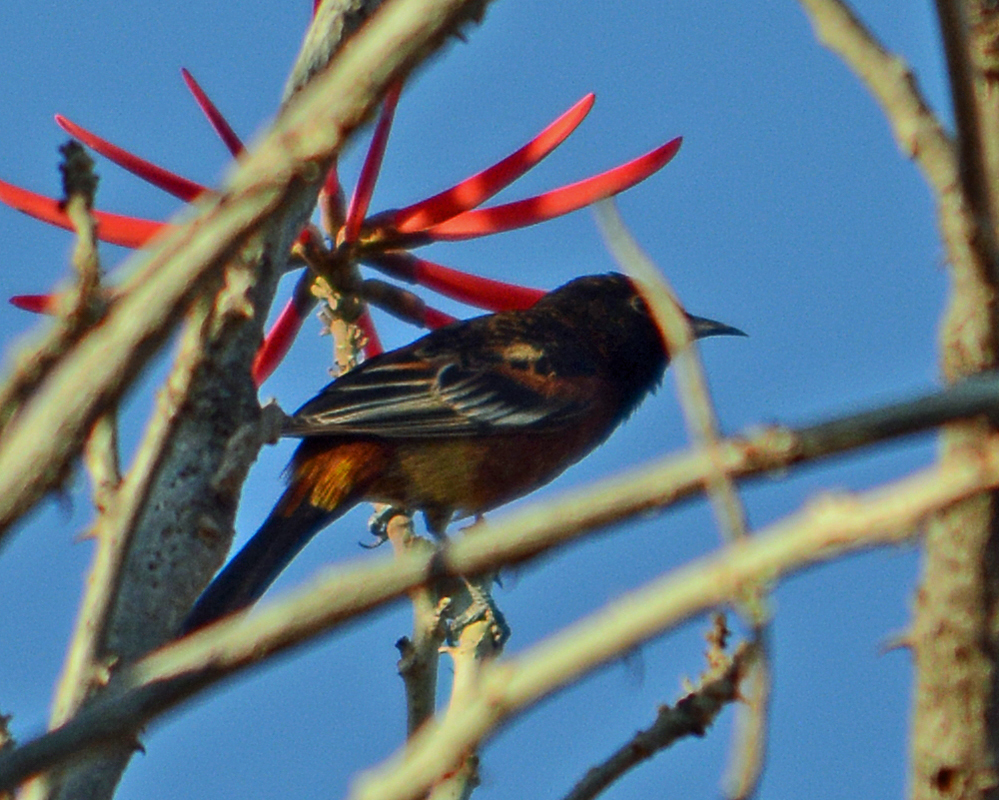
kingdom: Animalia
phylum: Chordata
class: Aves
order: Passeriformes
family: Icteridae
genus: Icterus
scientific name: Icterus spurius
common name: Orchard oriole
